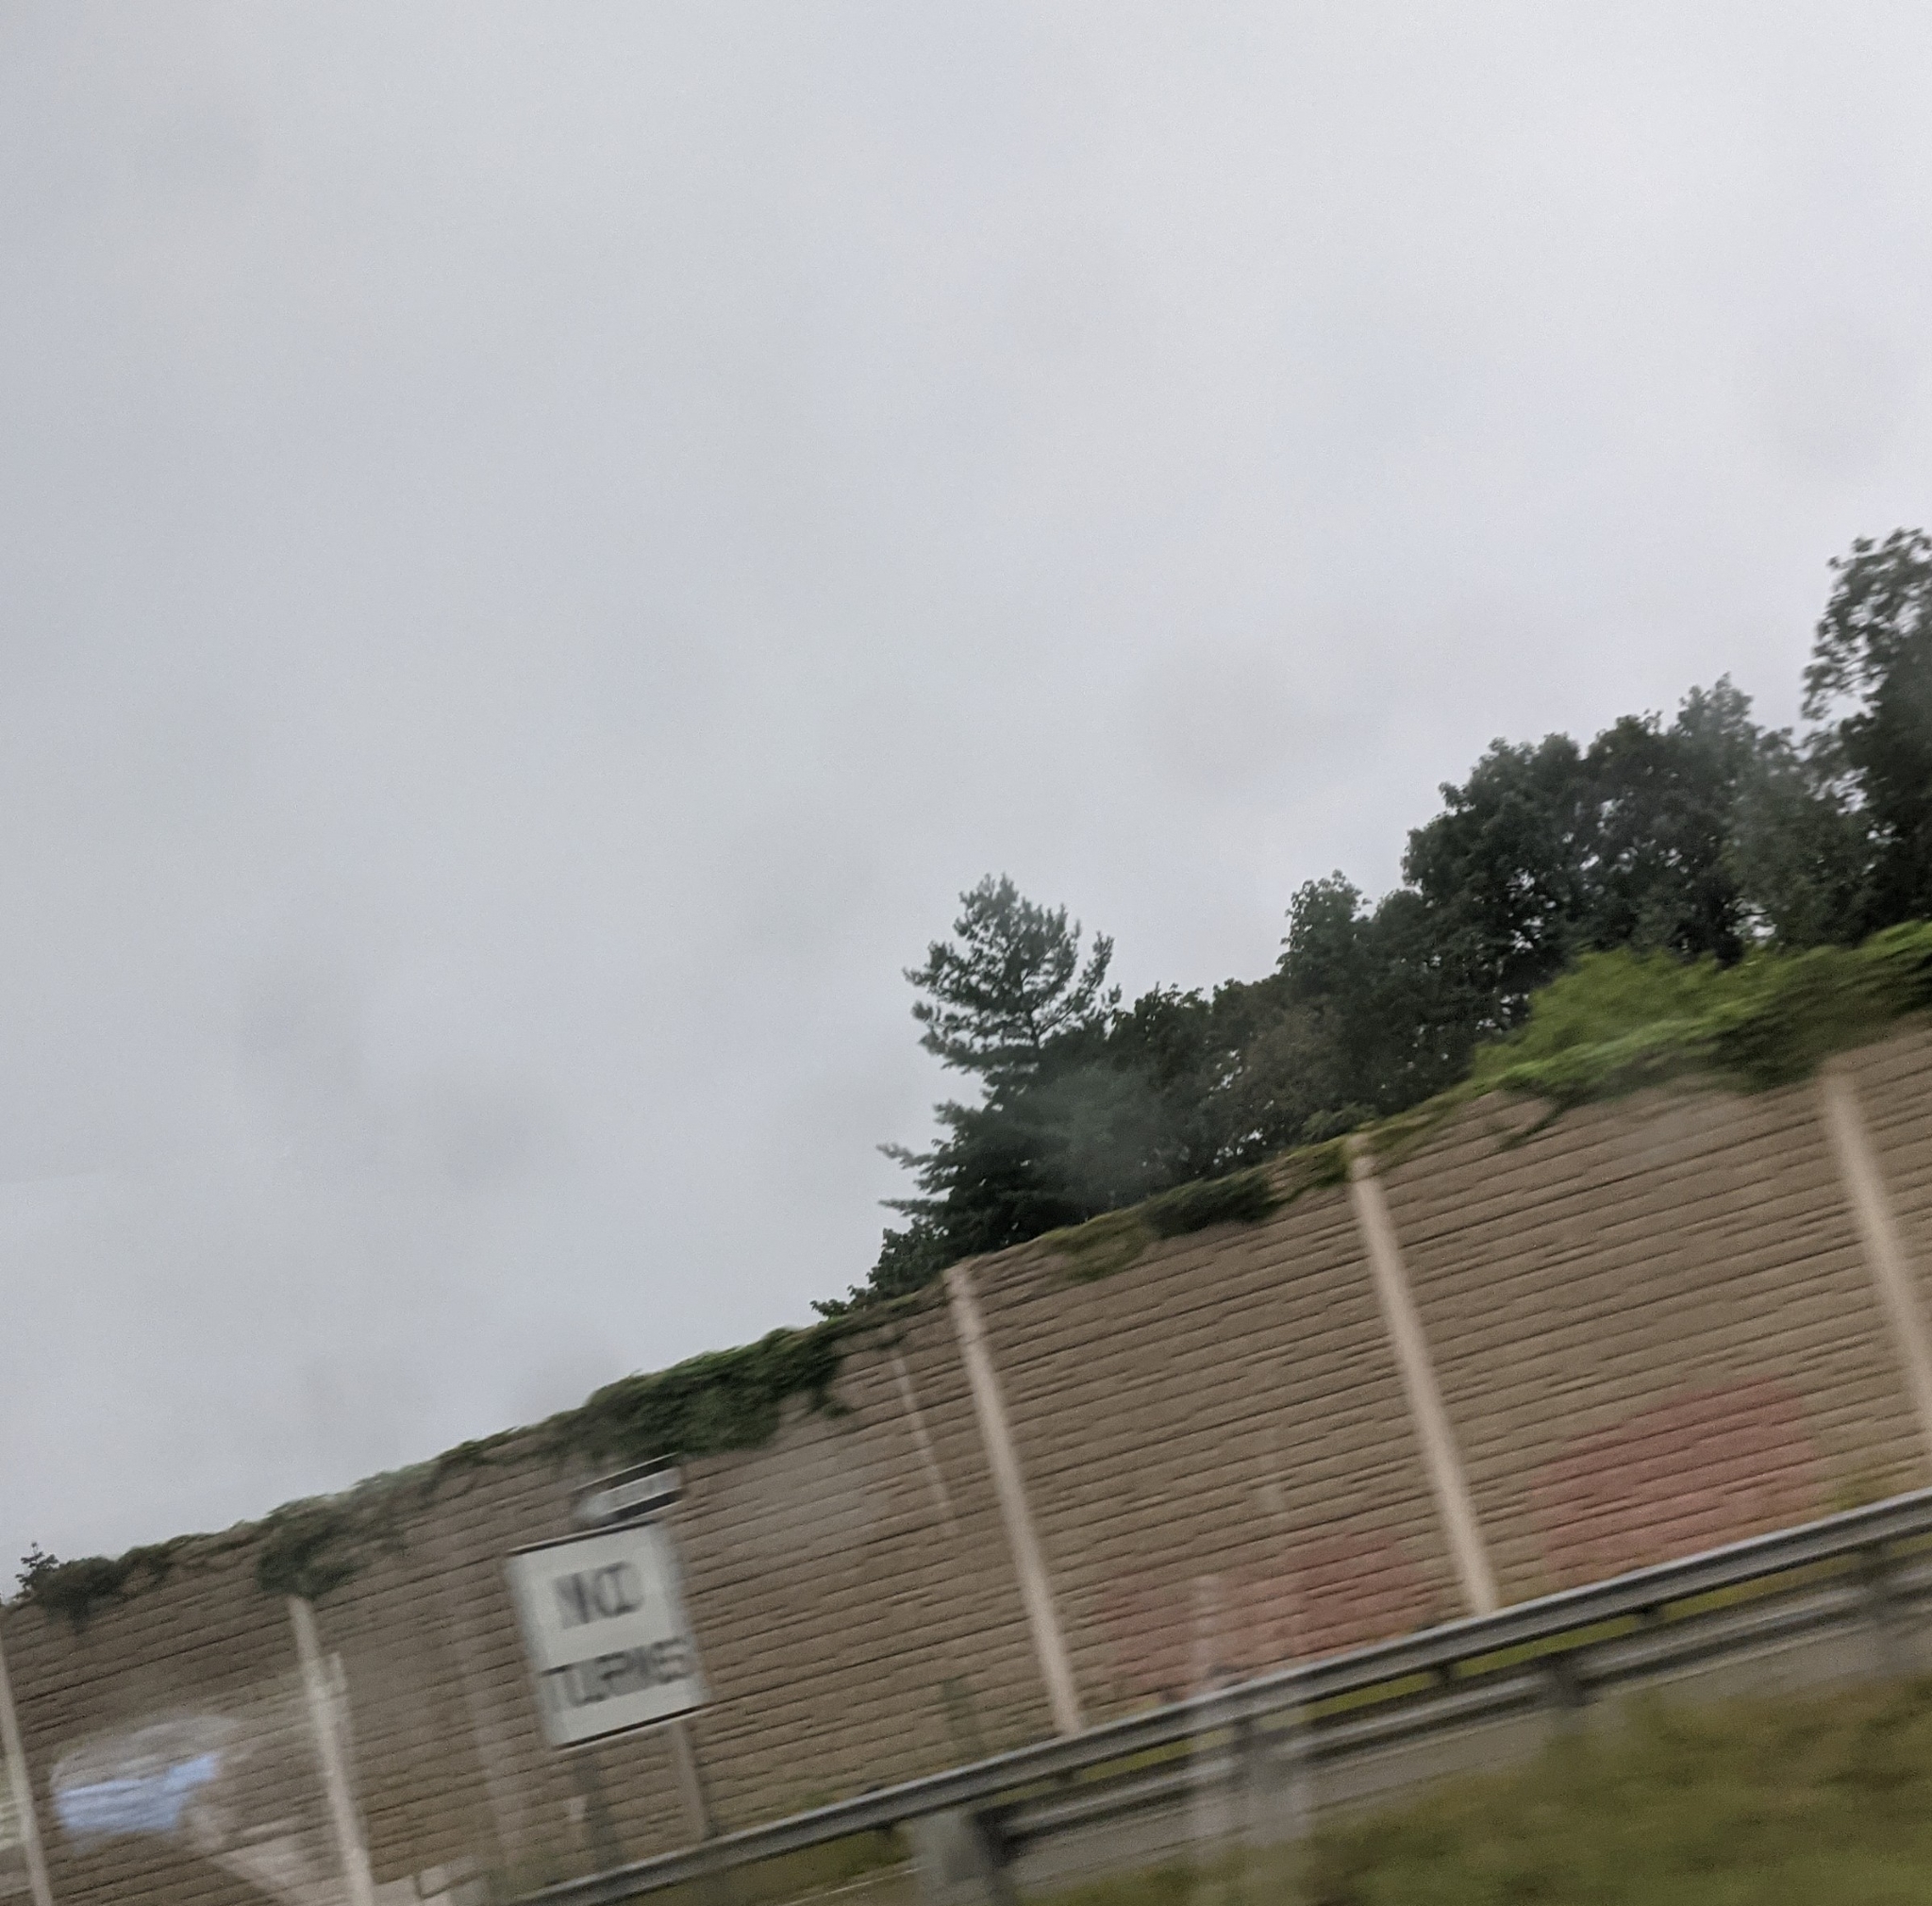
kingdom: Plantae
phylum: Tracheophyta
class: Pinopsida
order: Pinales
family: Pinaceae
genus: Pinus
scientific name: Pinus strobus
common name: Weymouth pine
